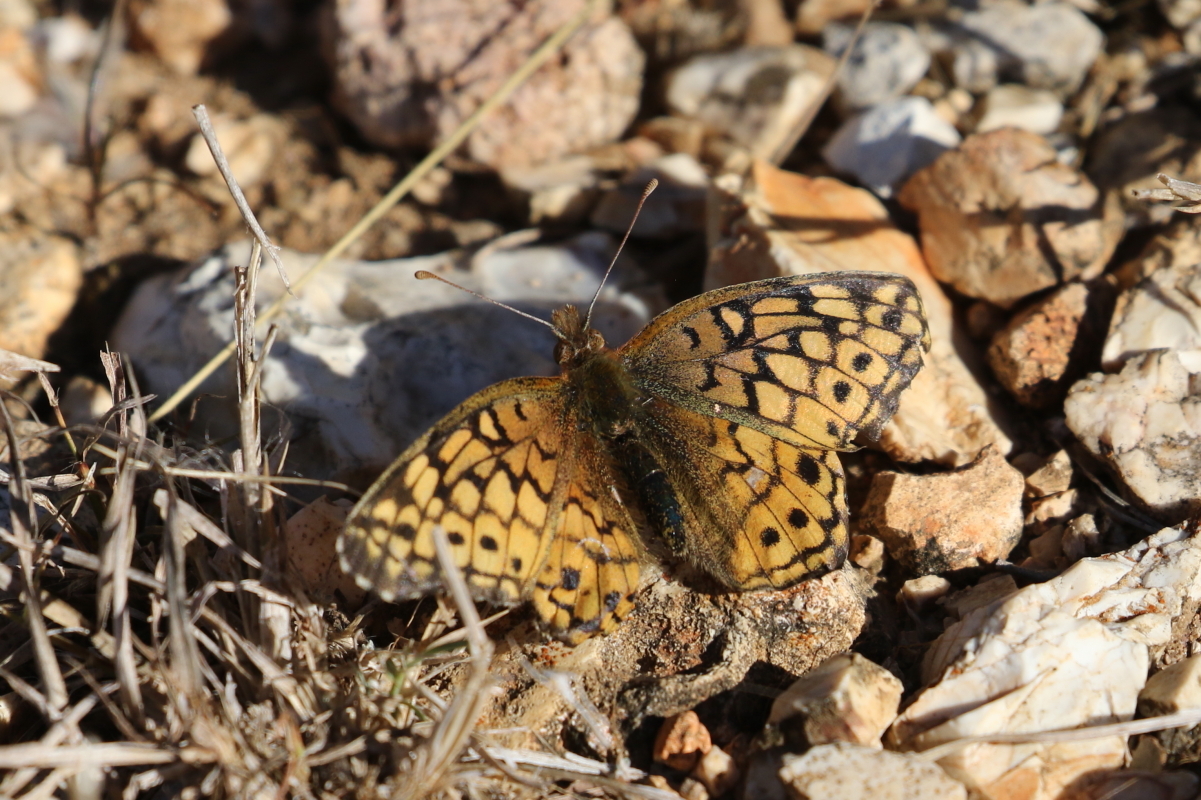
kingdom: Animalia
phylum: Arthropoda
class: Insecta
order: Lepidoptera
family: Nymphalidae
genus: Euptoieta
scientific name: Euptoieta claudia
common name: Variegated fritillary
